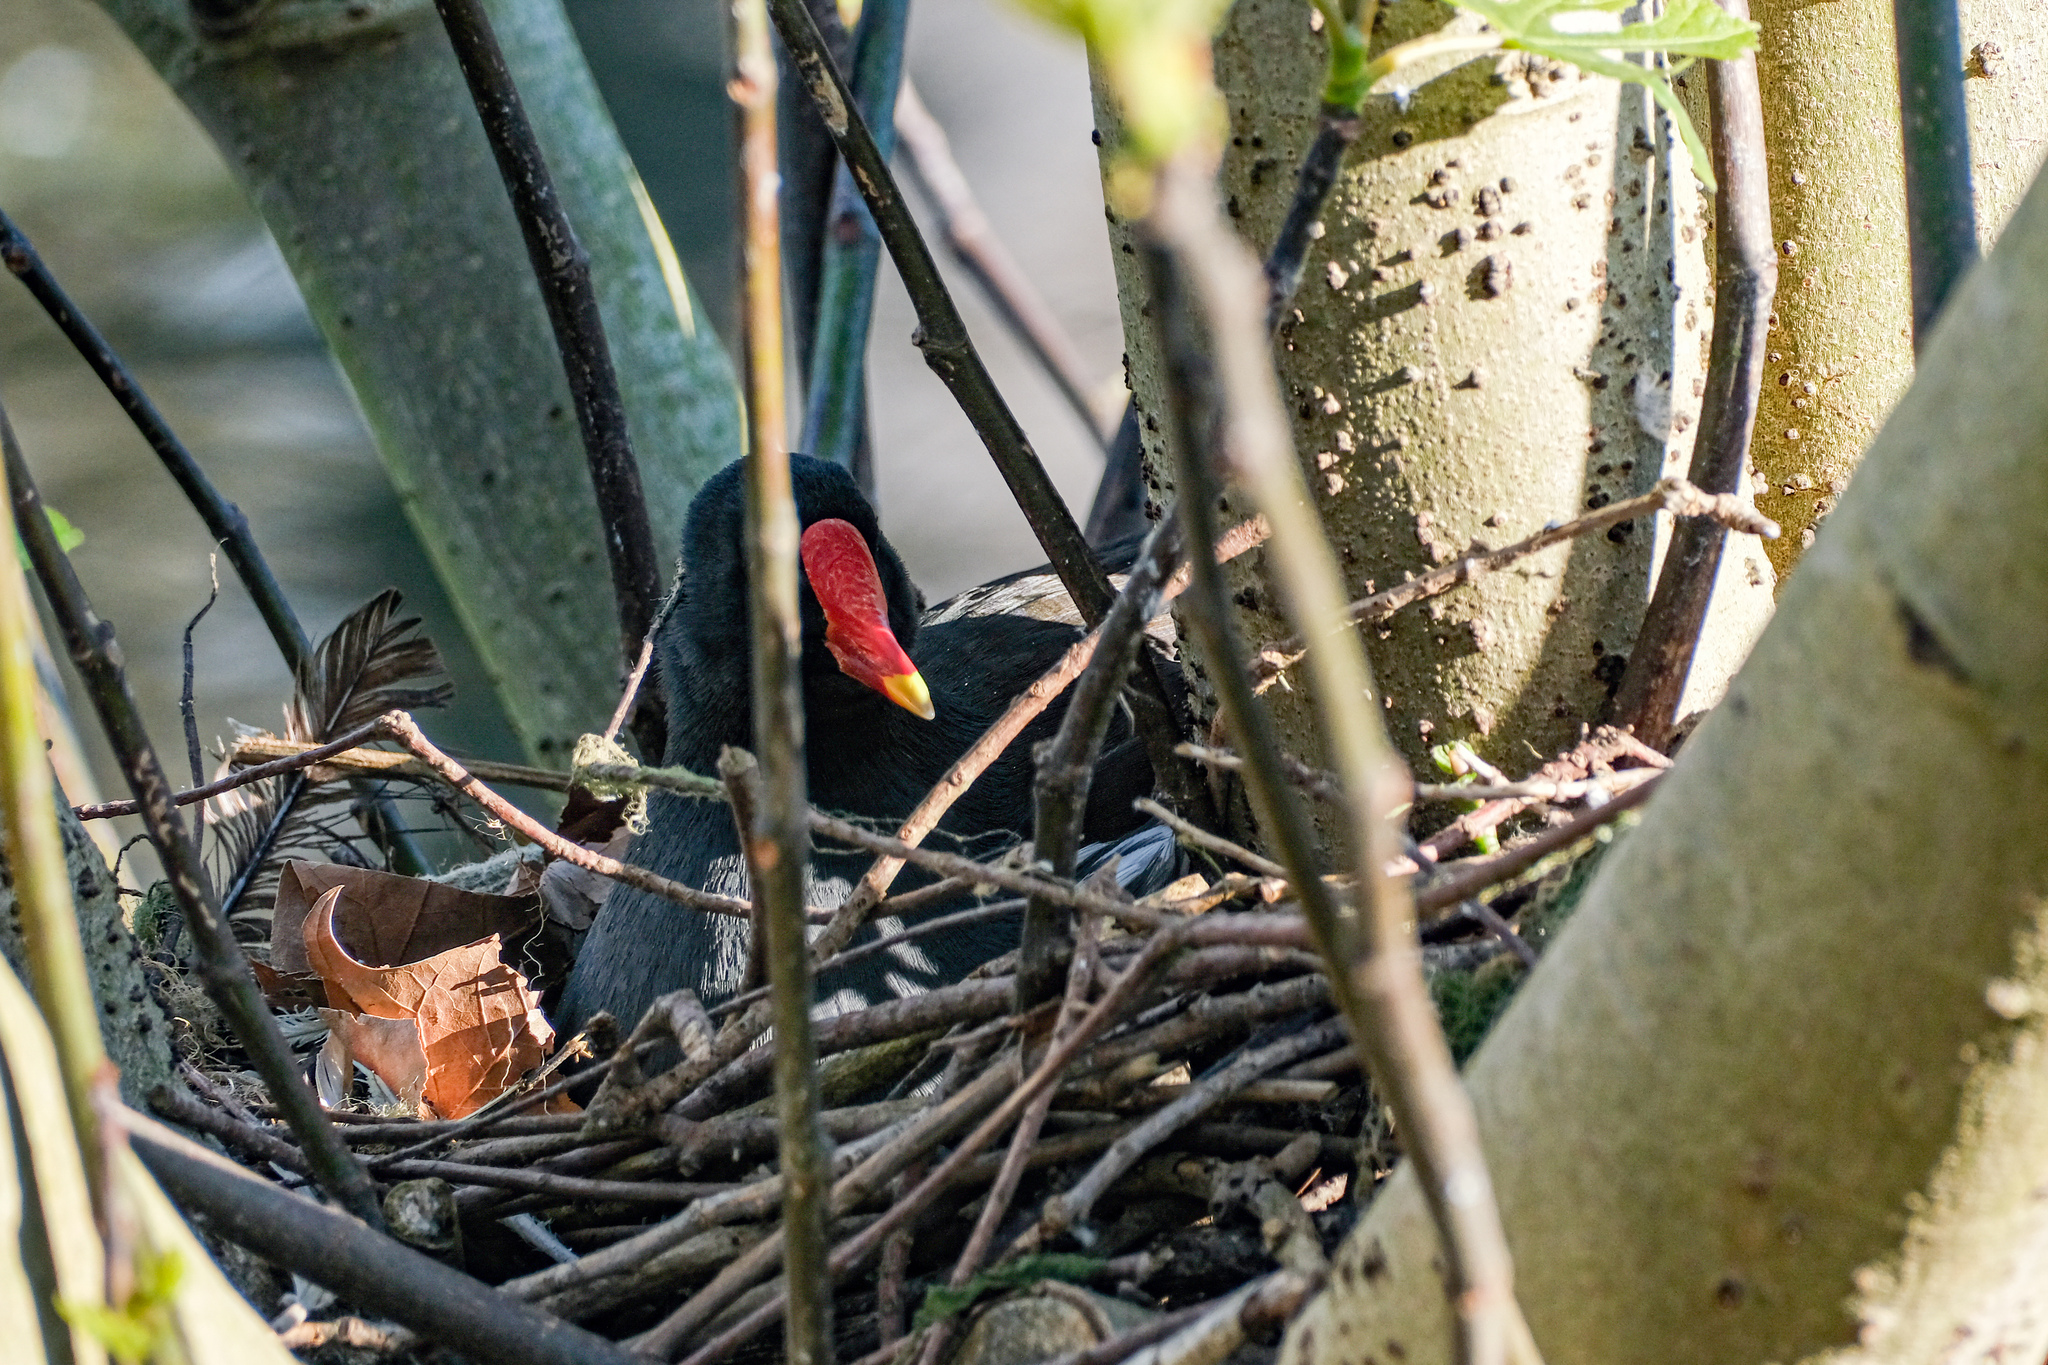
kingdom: Animalia
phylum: Chordata
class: Aves
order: Gruiformes
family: Rallidae
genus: Gallinula
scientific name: Gallinula chloropus
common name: Common moorhen
